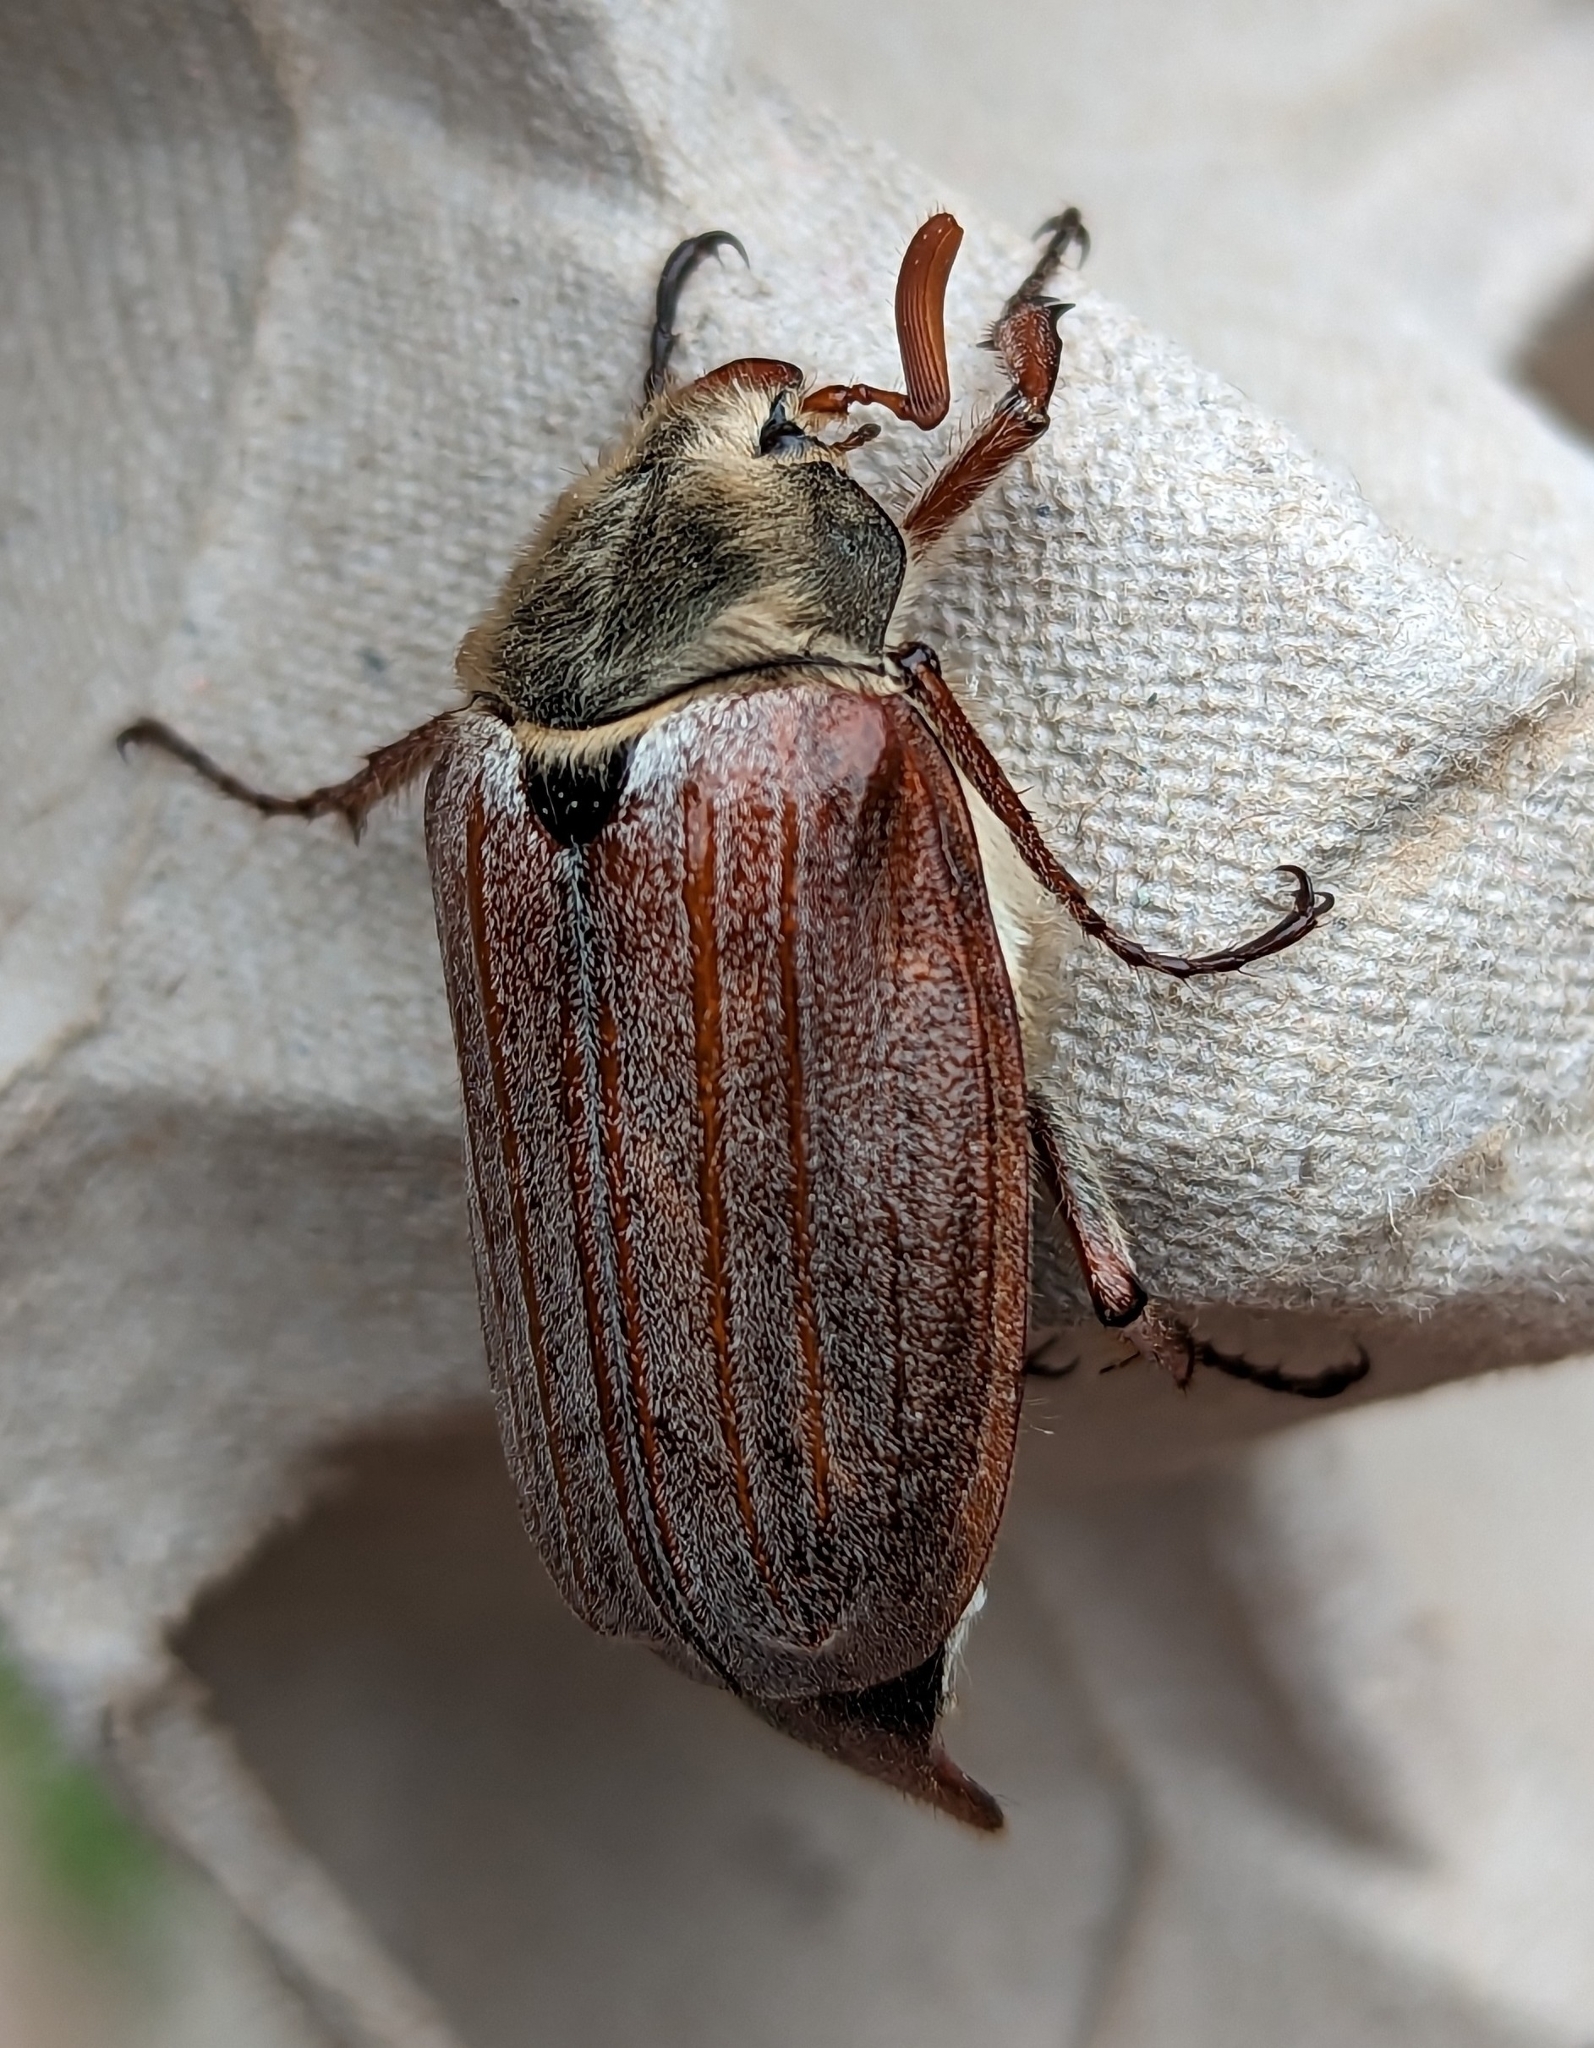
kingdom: Animalia
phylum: Arthropoda
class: Insecta
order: Coleoptera
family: Scarabaeidae
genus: Melolontha
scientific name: Melolontha melolontha
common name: Cockchafer maybeetle
